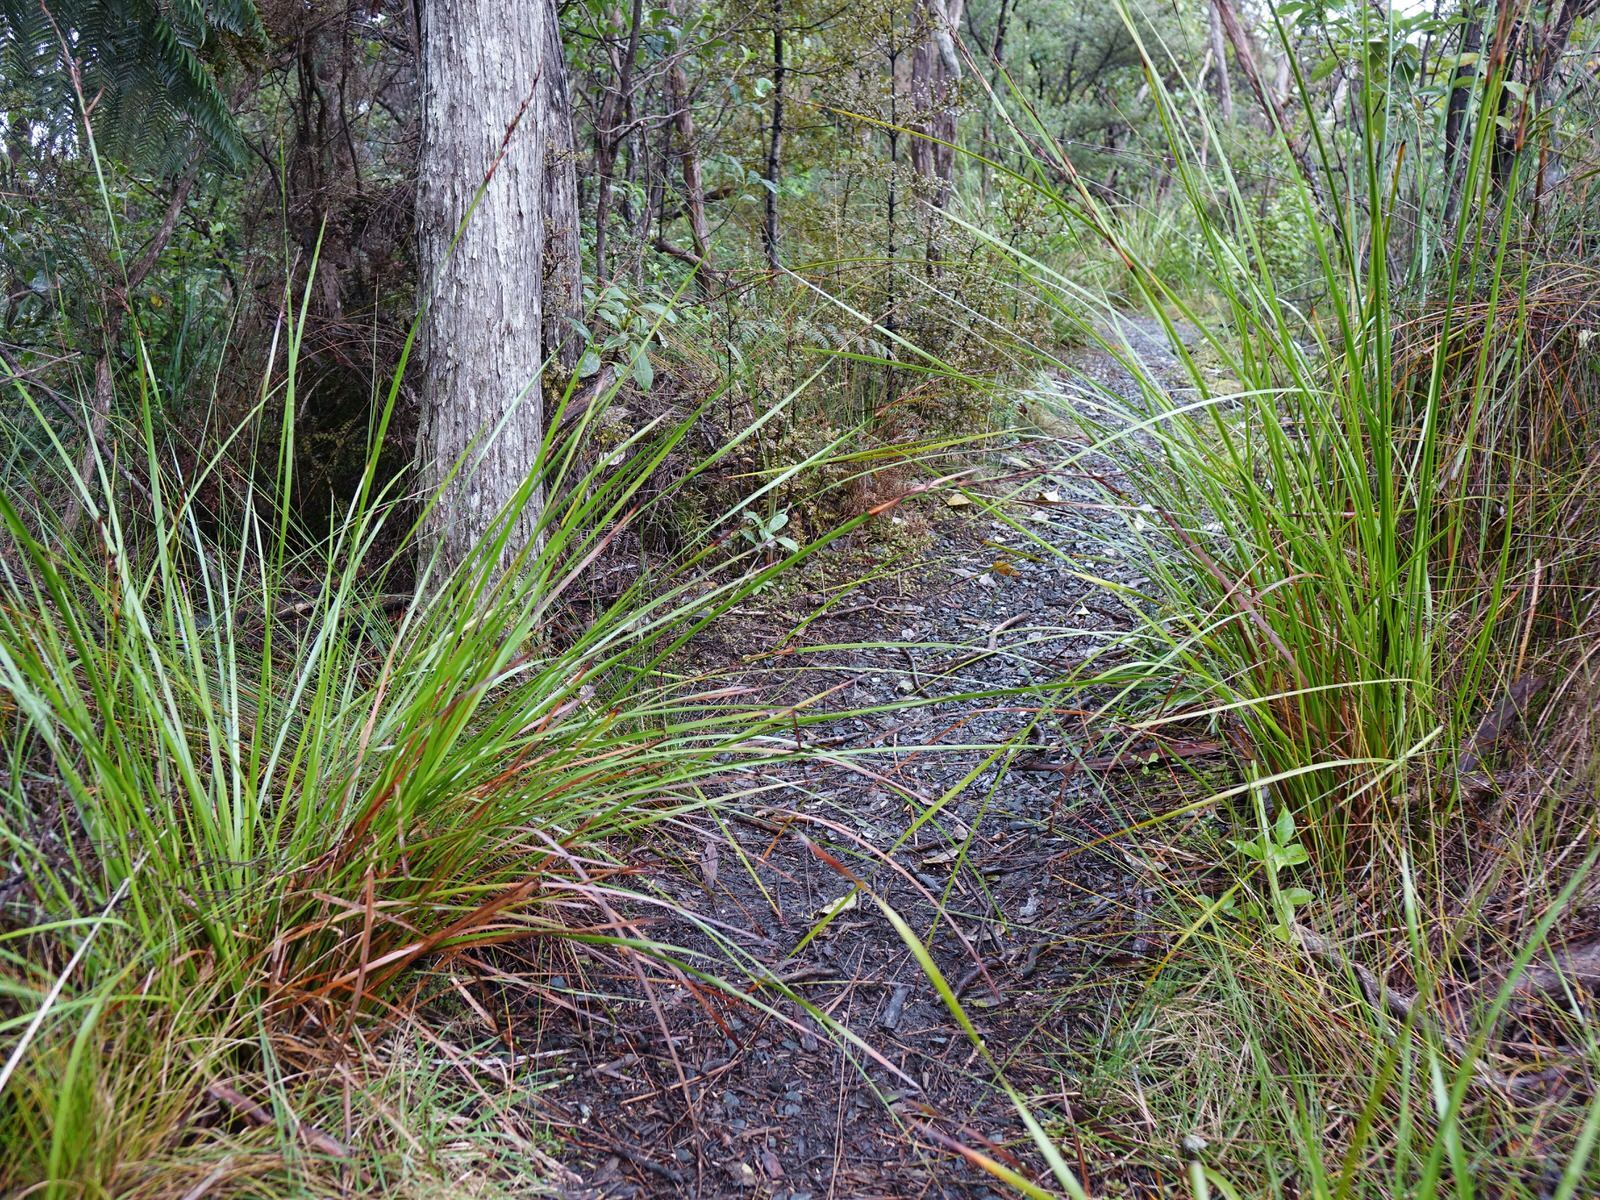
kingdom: Plantae
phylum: Tracheophyta
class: Liliopsida
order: Poales
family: Cyperaceae
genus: Lepidosperma
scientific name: Lepidosperma laterale
